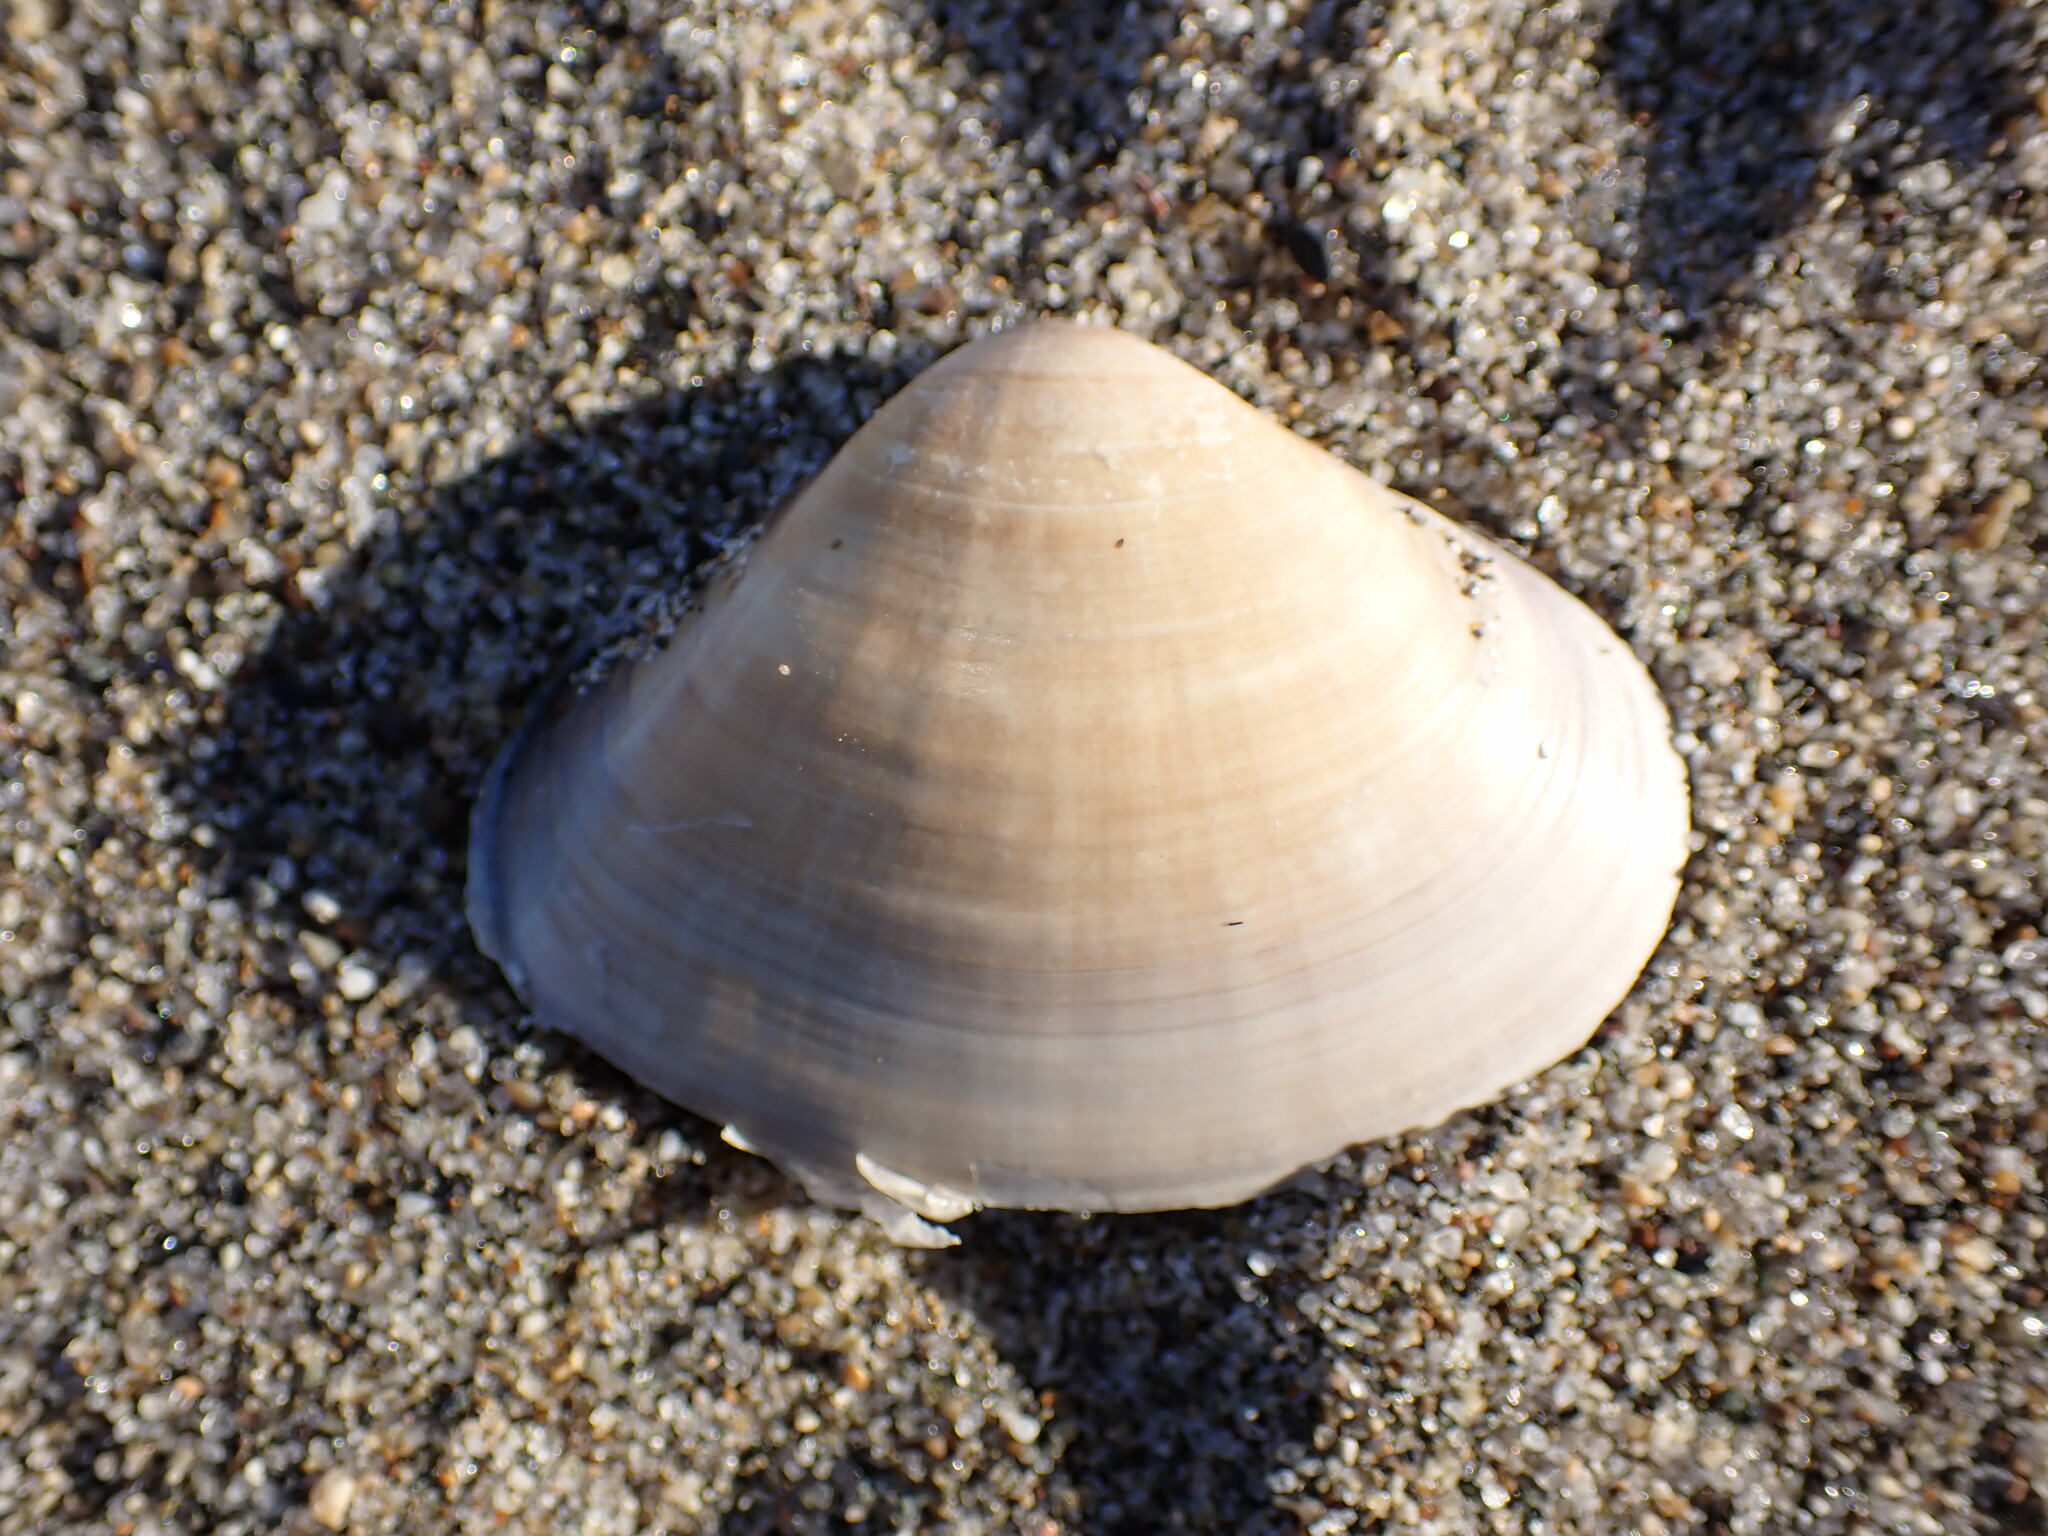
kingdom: Animalia
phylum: Mollusca
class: Bivalvia
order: Venerida
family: Veneridae
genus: Tivela
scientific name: Tivela stultorum
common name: Pismo clam
